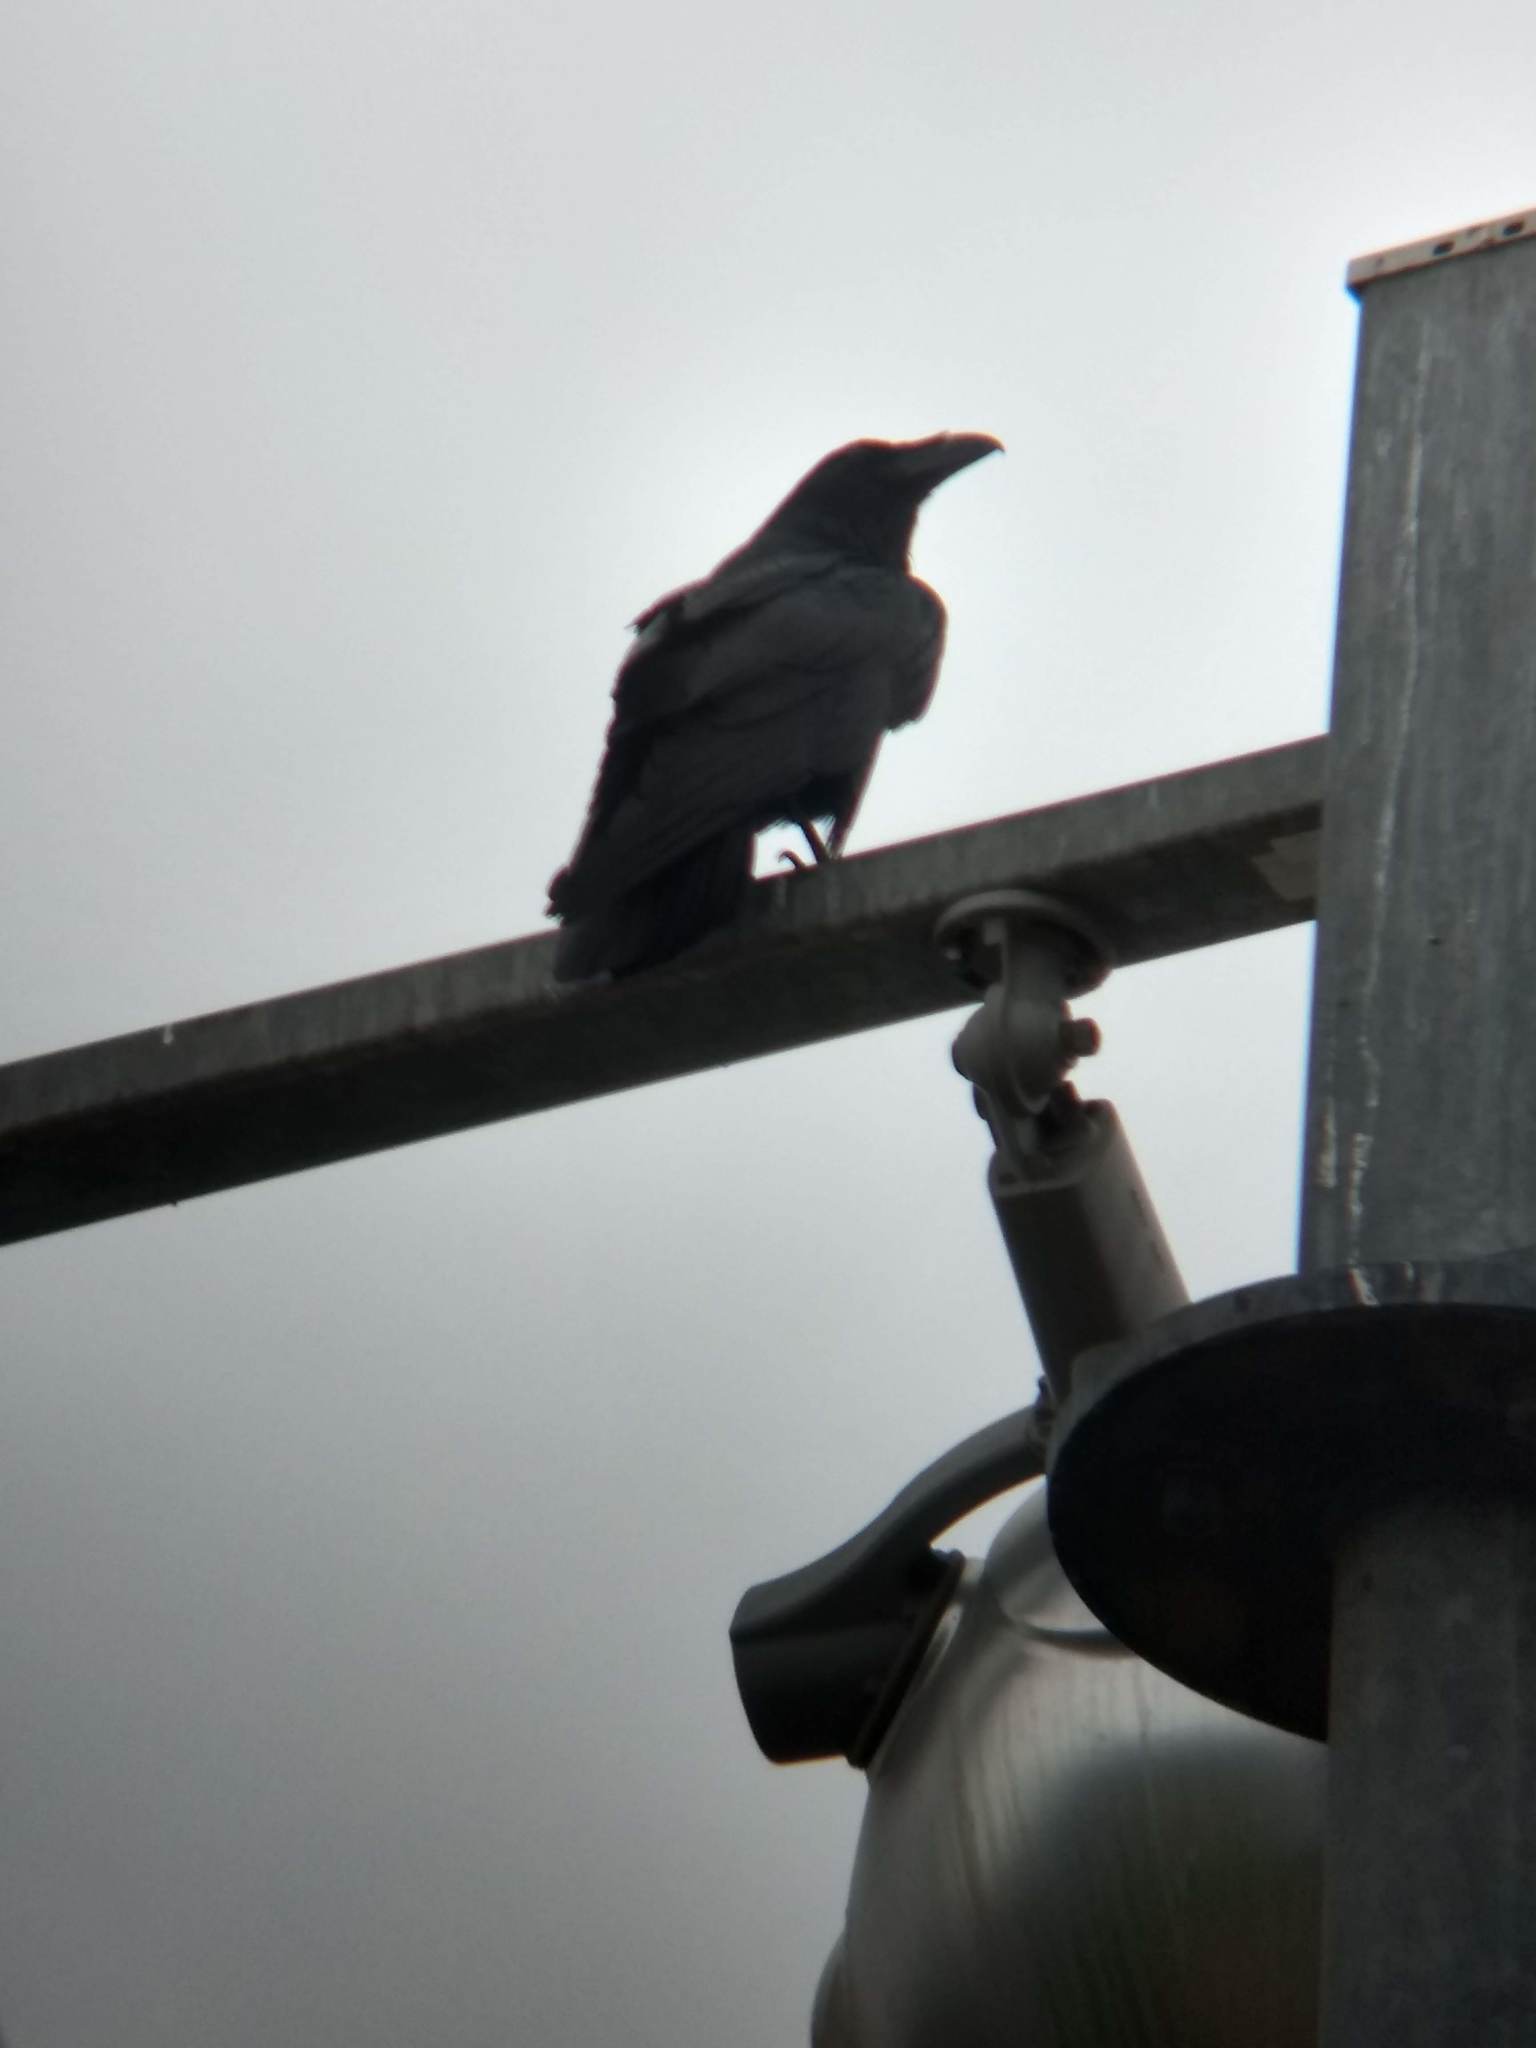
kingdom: Animalia
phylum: Chordata
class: Aves
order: Passeriformes
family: Corvidae
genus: Corvus
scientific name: Corvus corax
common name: Common raven
